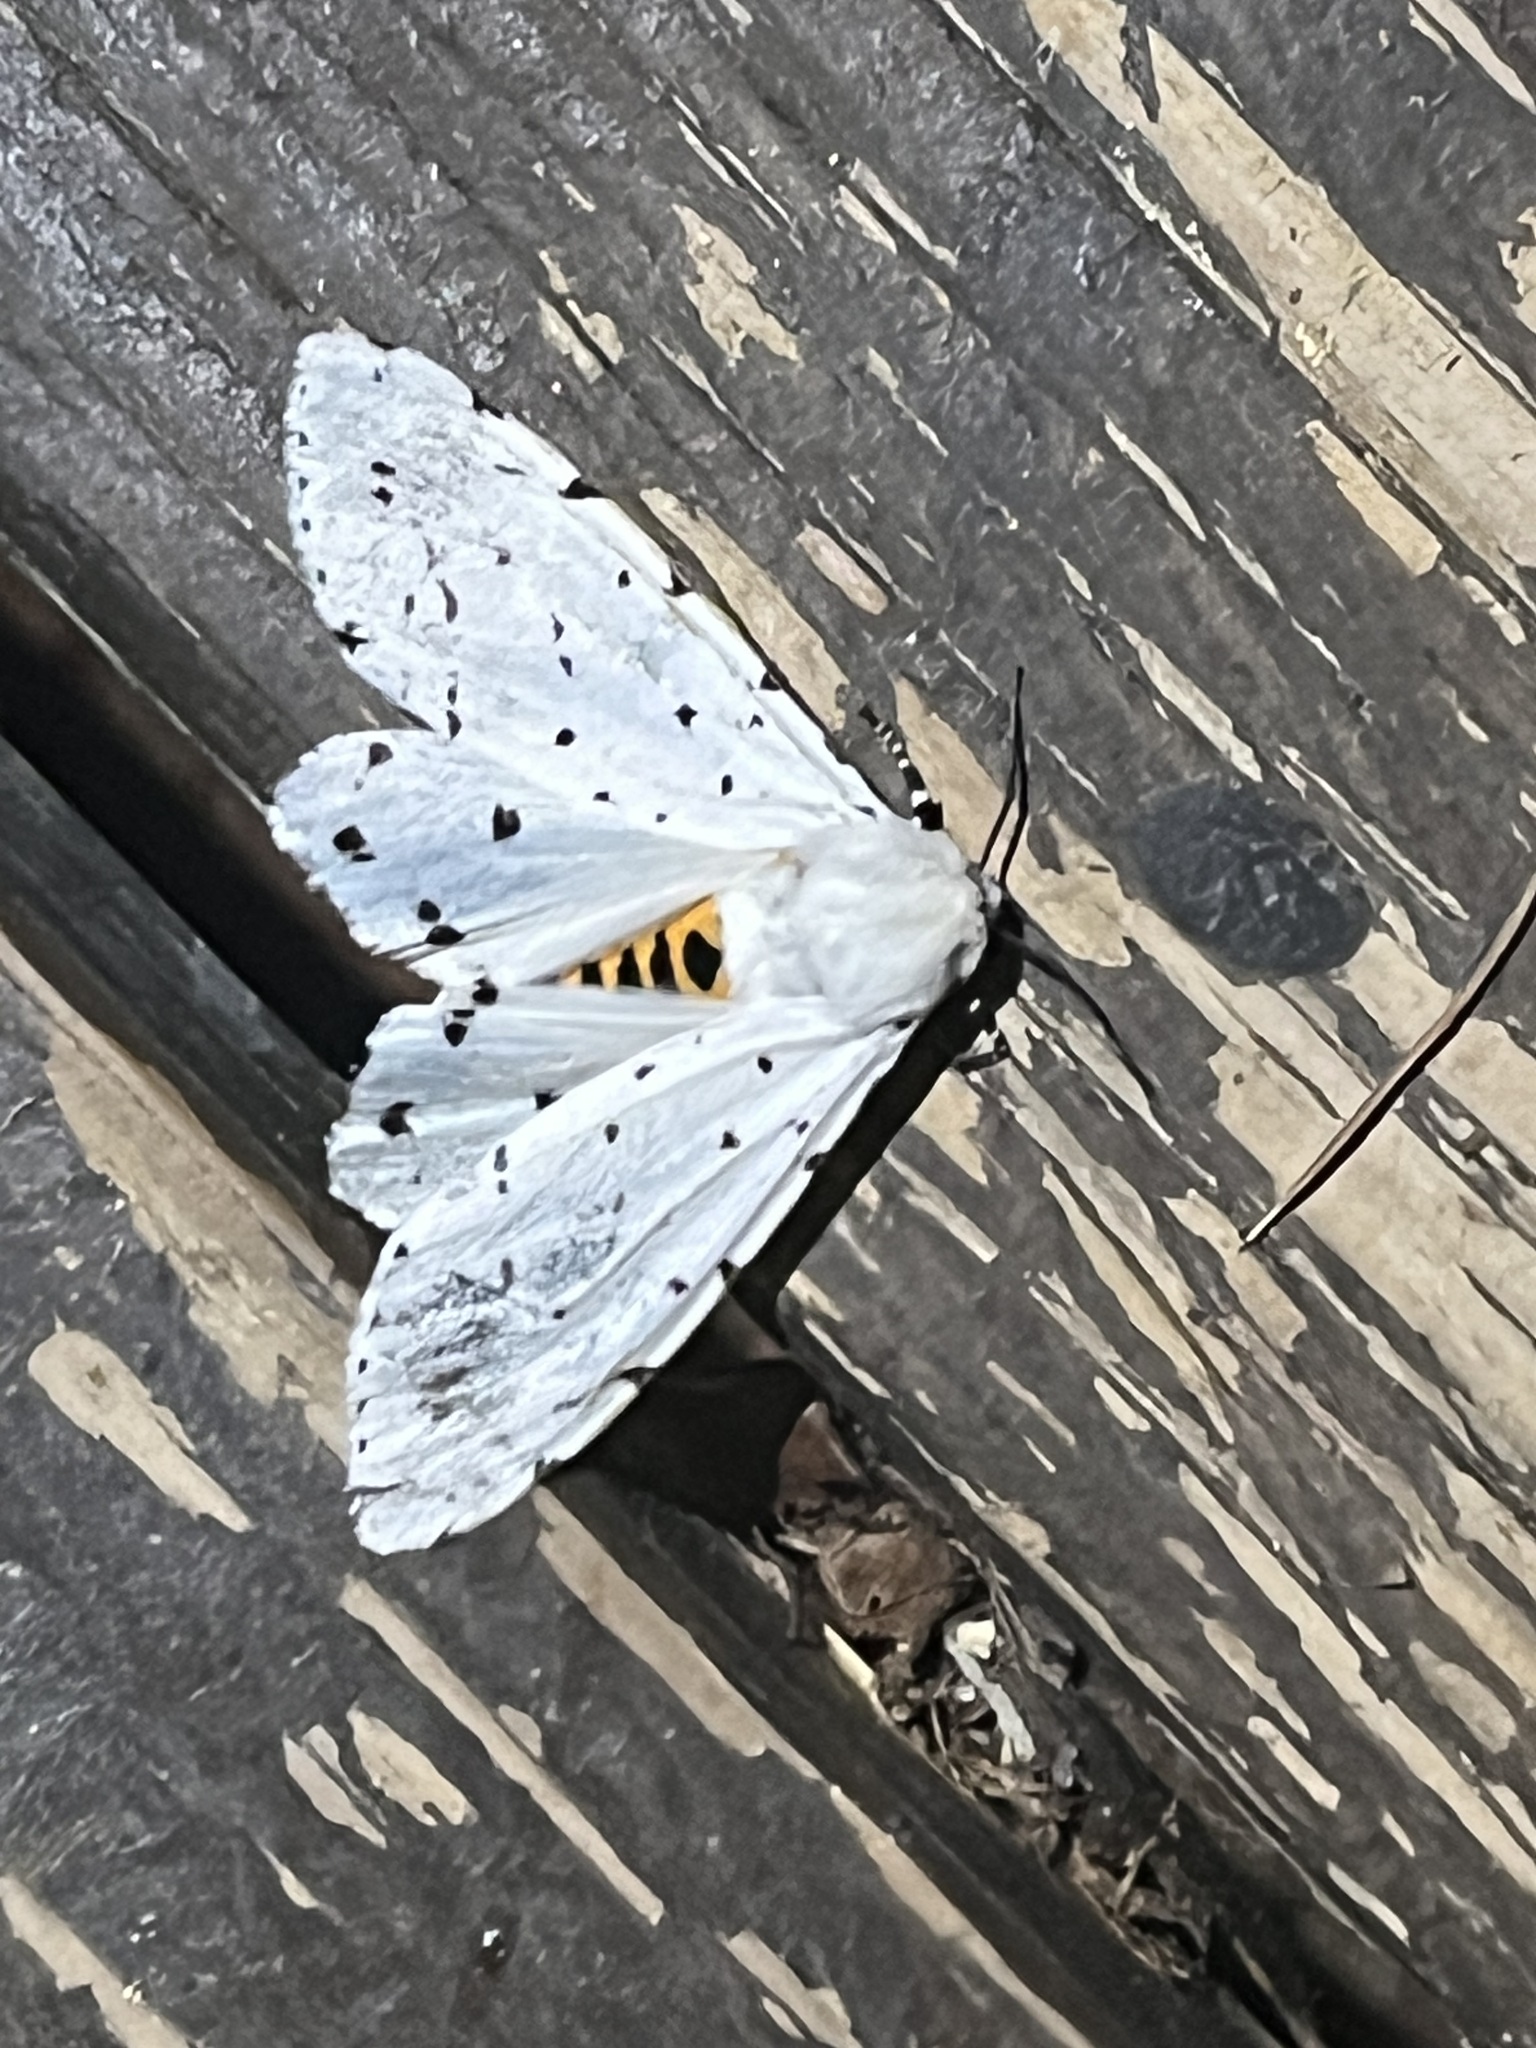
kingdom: Animalia
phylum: Arthropoda
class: Insecta
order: Lepidoptera
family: Erebidae
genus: Estigmene
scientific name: Estigmene acrea
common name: Salt marsh moth
